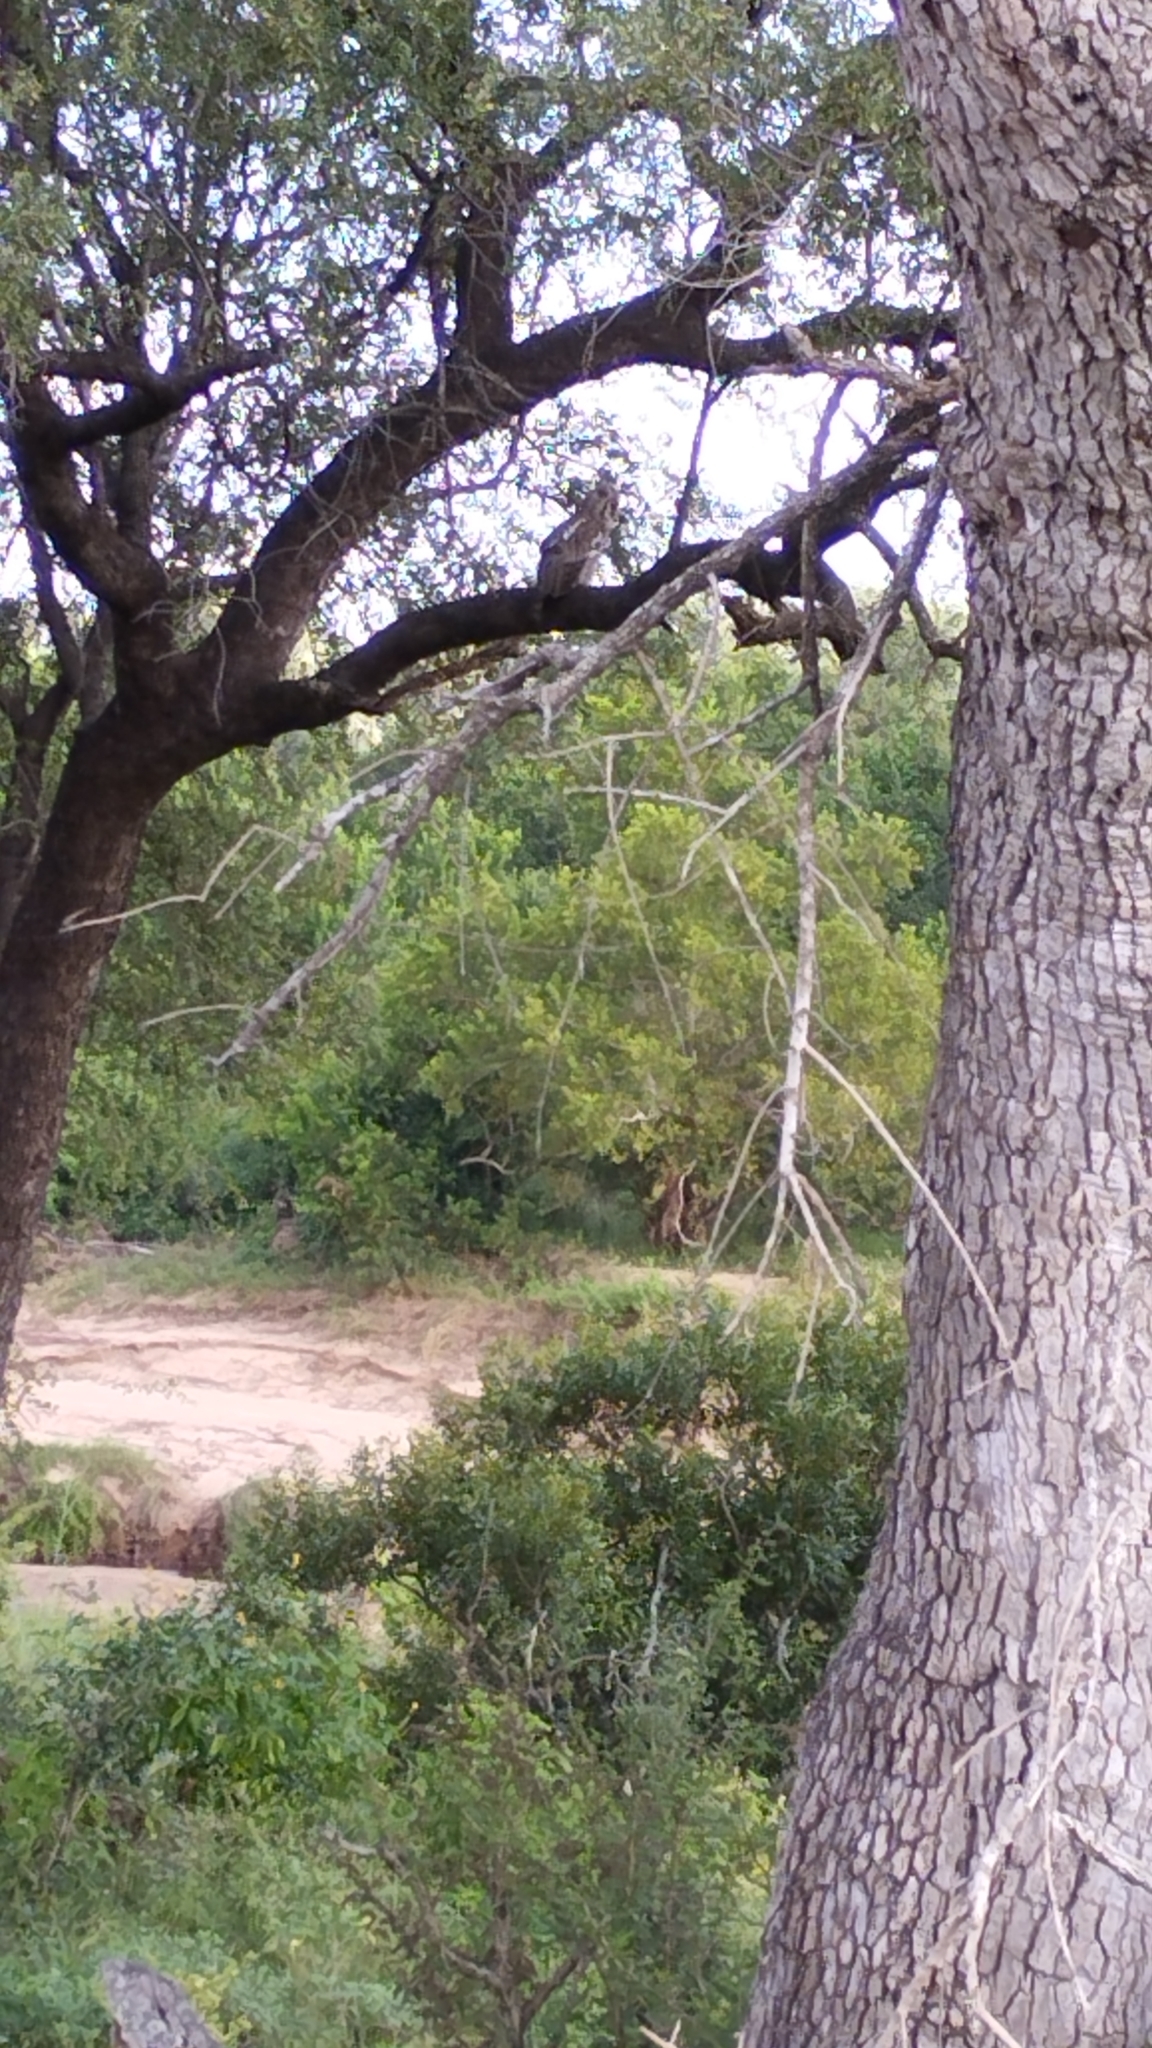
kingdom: Animalia
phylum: Chordata
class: Aves
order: Strigiformes
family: Strigidae
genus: Bubo
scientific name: Bubo lacteus
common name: Verreaux's eagle-owl
